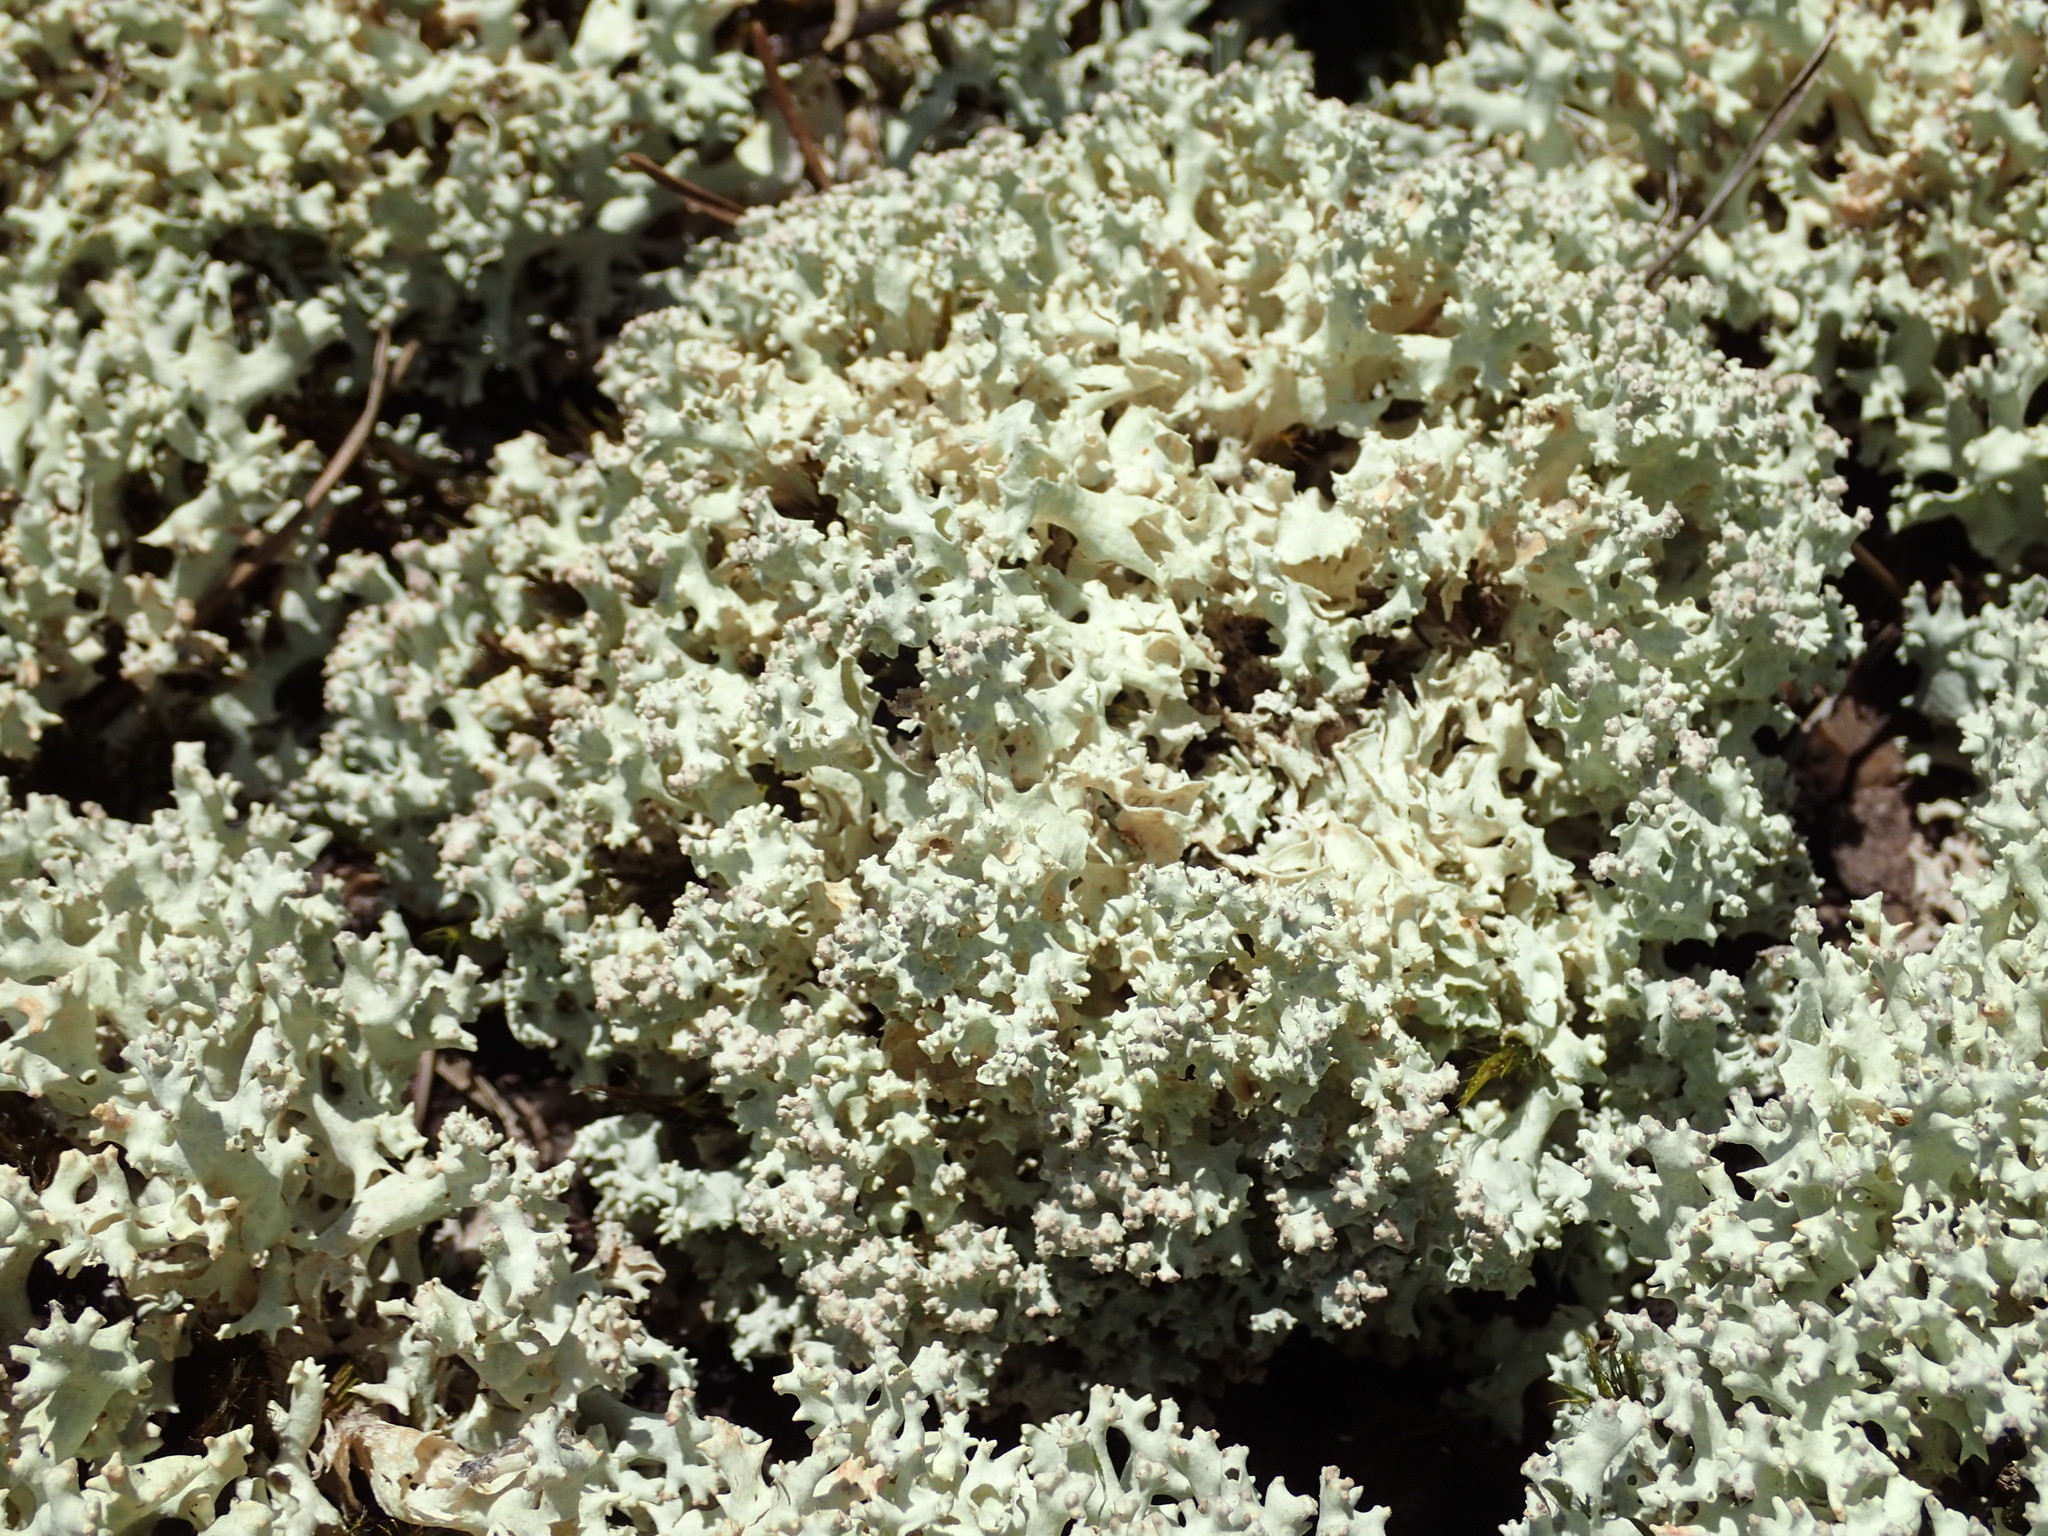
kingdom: Fungi
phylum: Ascomycota
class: Lecanoromycetes
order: Lecanorales
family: Cladoniaceae
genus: Cladonia
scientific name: Cladonia caroliniana
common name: Granite thorn
